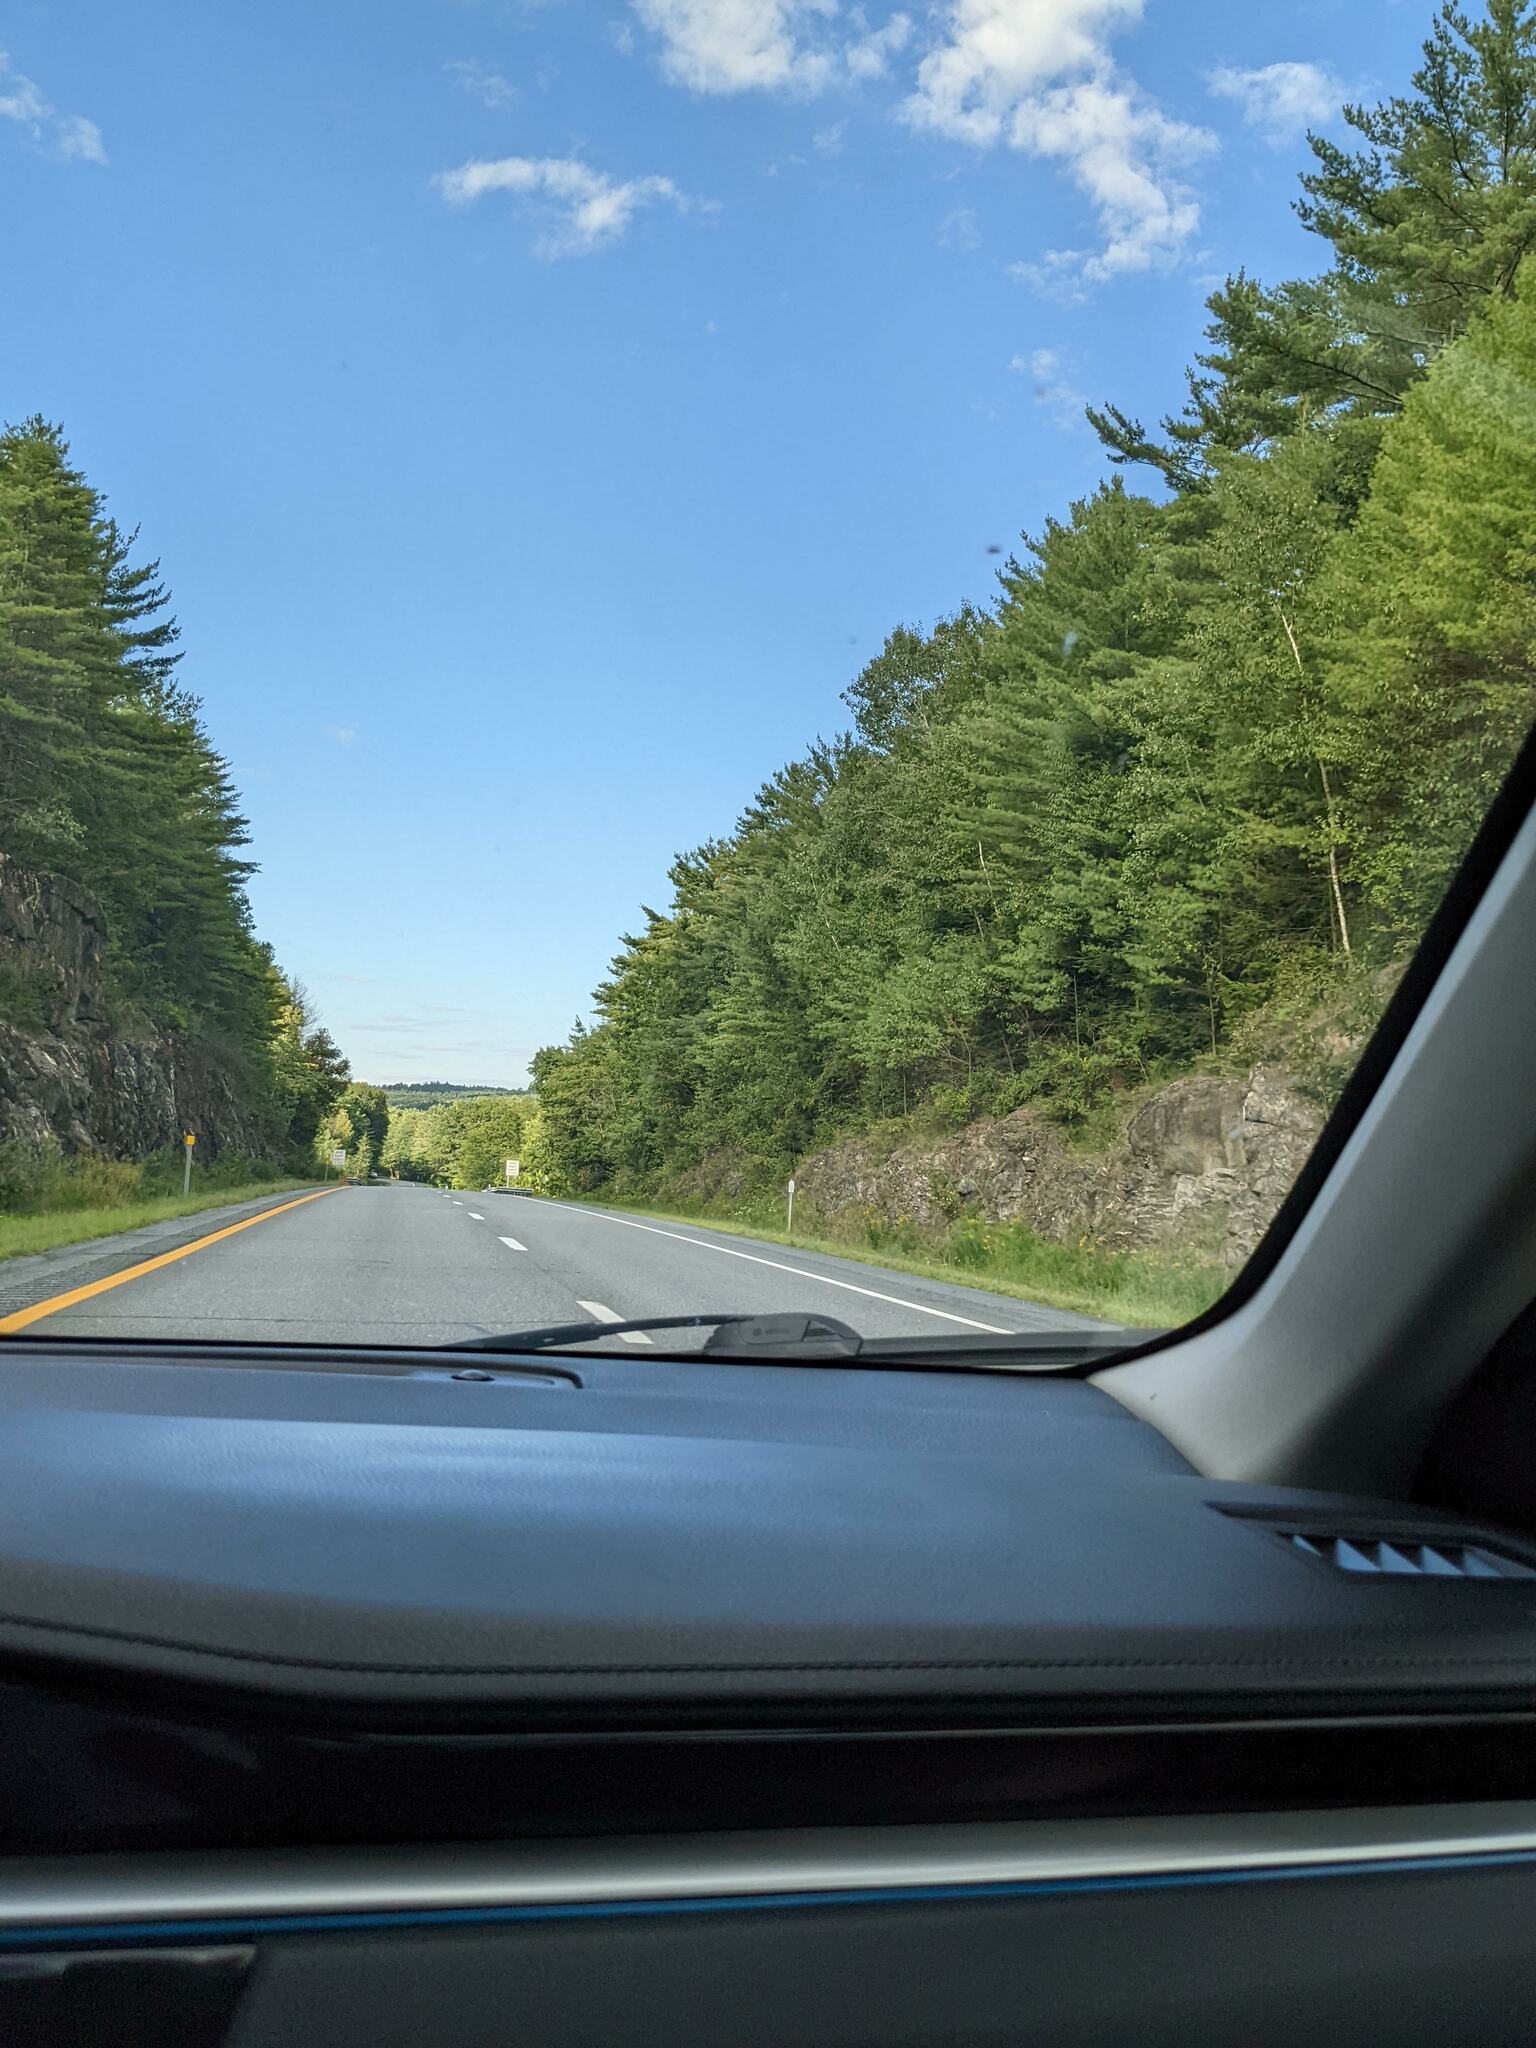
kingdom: Plantae
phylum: Tracheophyta
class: Pinopsida
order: Pinales
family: Pinaceae
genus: Pinus
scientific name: Pinus strobus
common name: Weymouth pine
